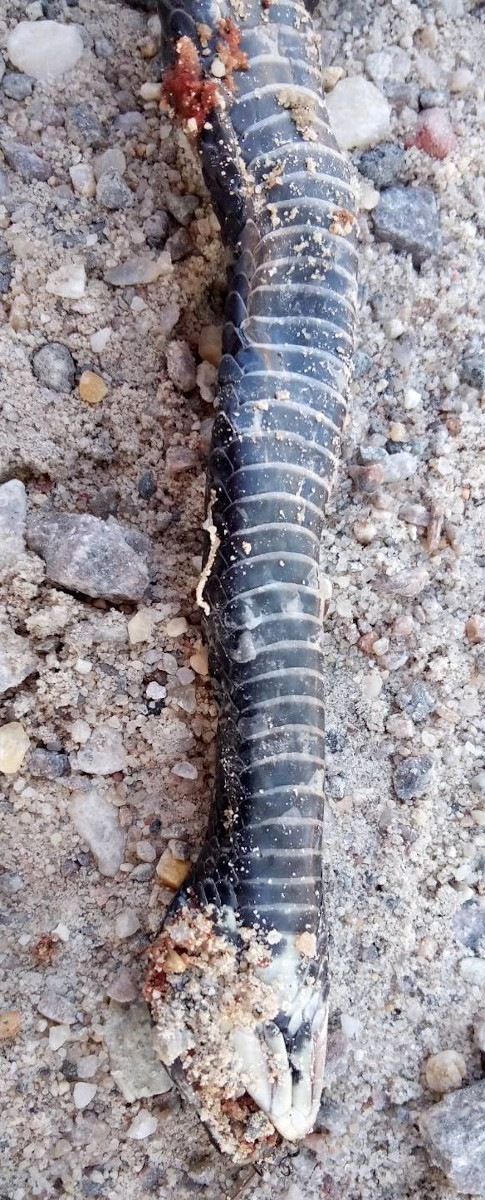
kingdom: Animalia
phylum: Chordata
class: Squamata
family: Colubridae
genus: Coluber
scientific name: Coluber constrictor
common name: Eastern racer
